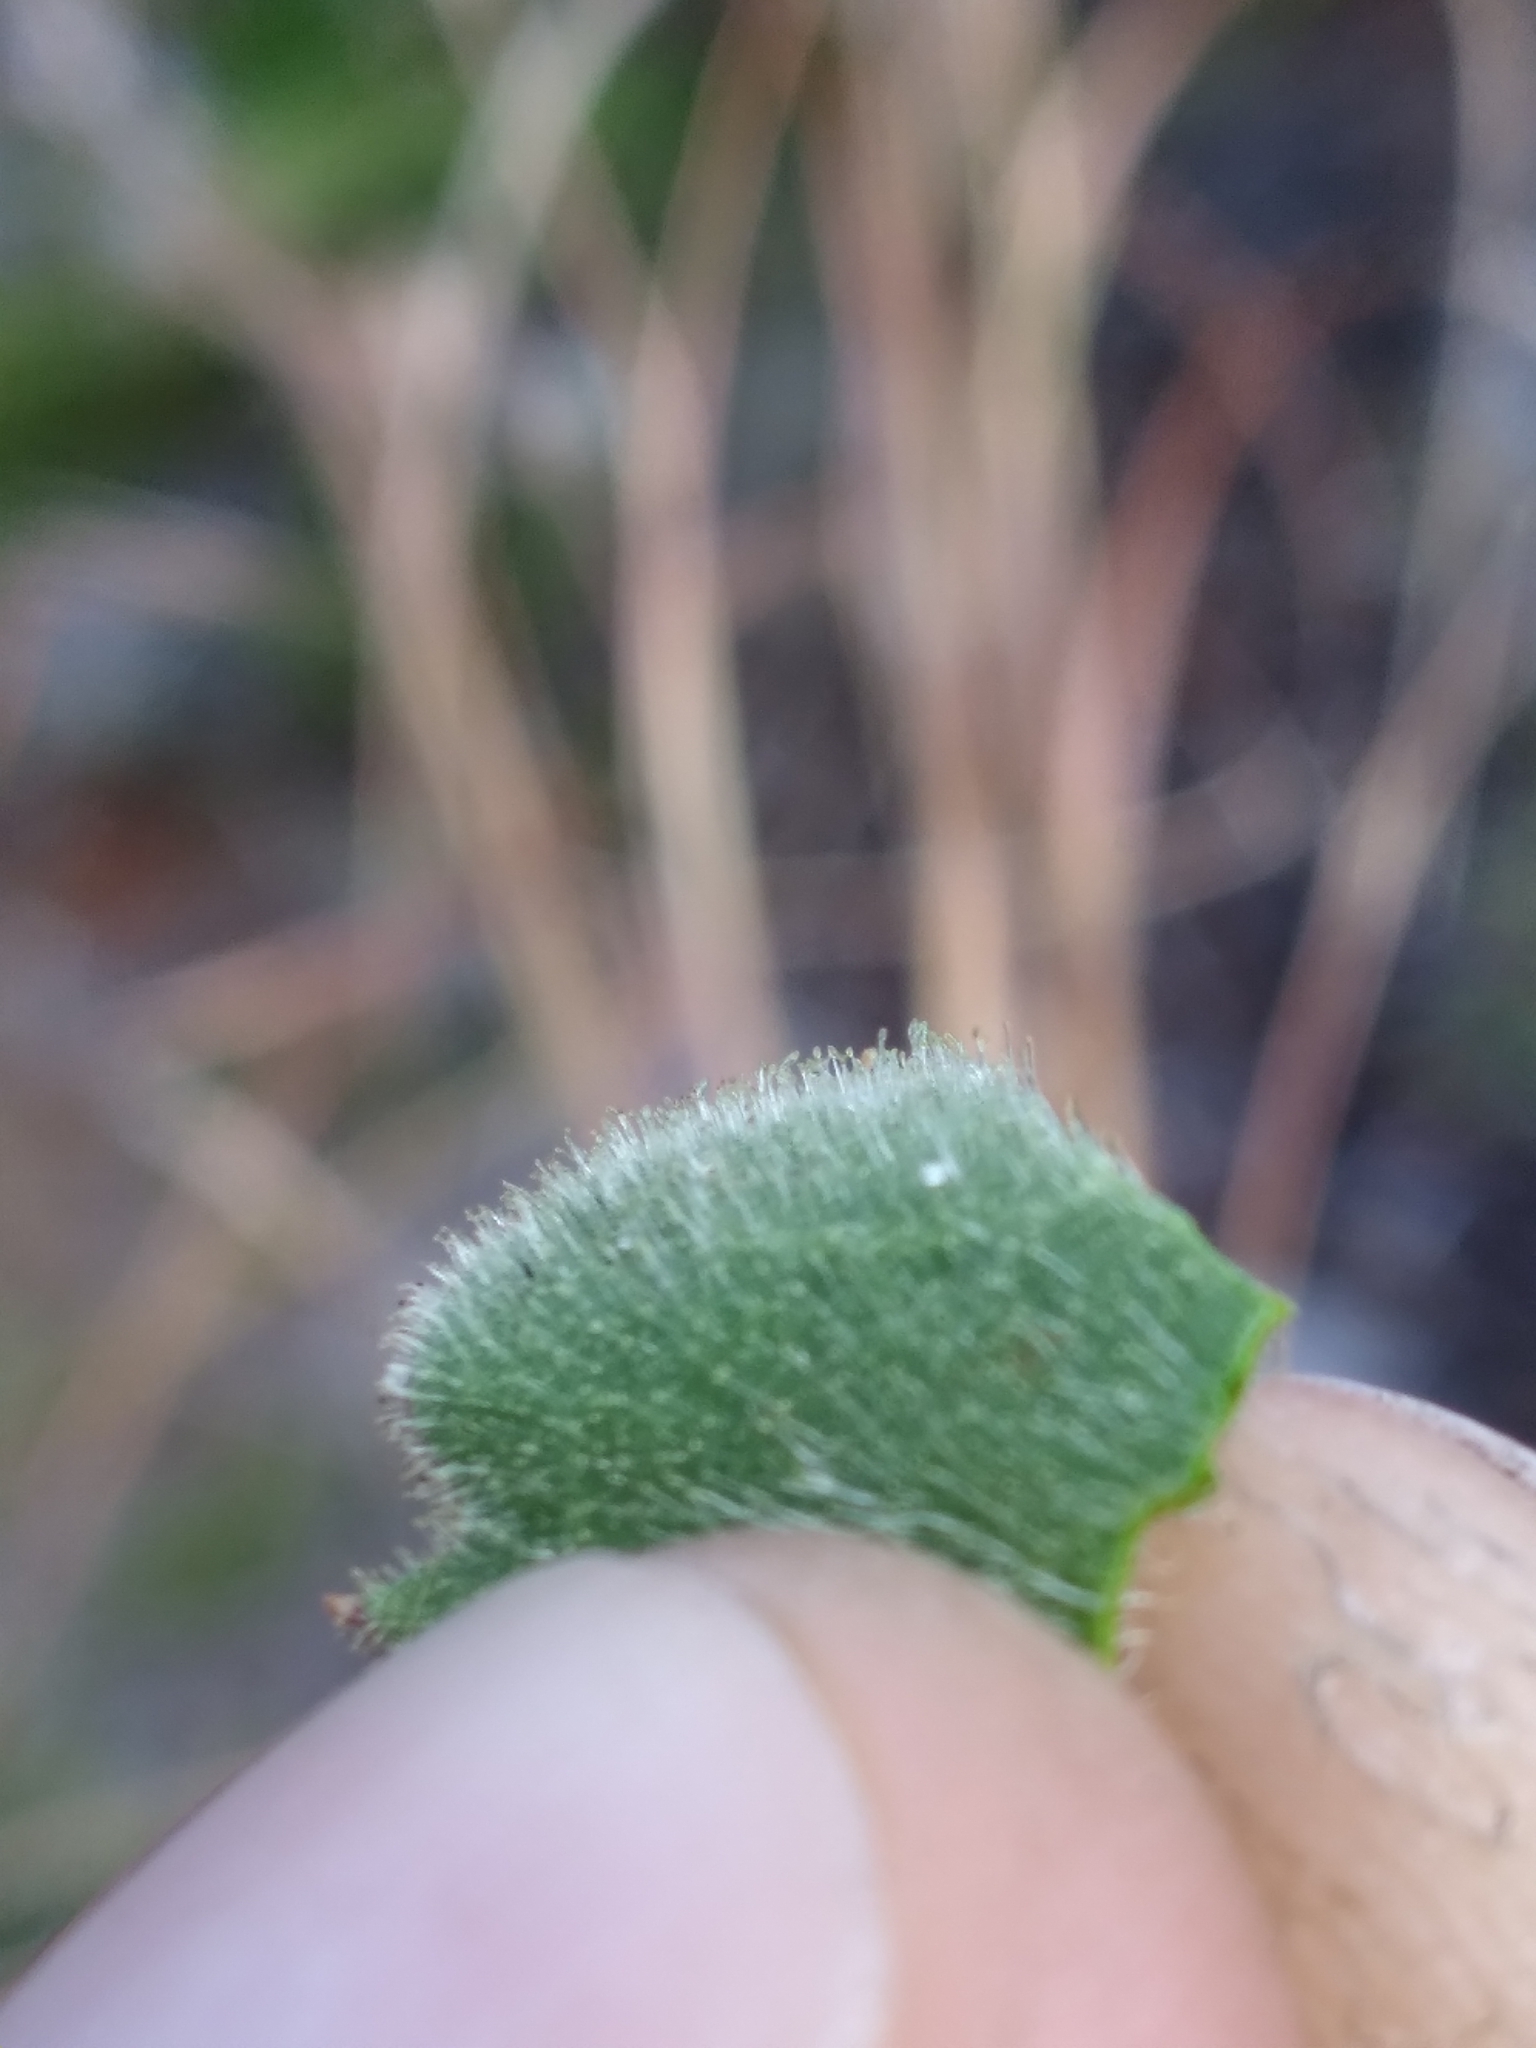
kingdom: Plantae
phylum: Tracheophyta
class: Magnoliopsida
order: Asterales
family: Asteraceae
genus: Chrysopsis
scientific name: Chrysopsis delaneyi
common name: Delaney's goldenaster
